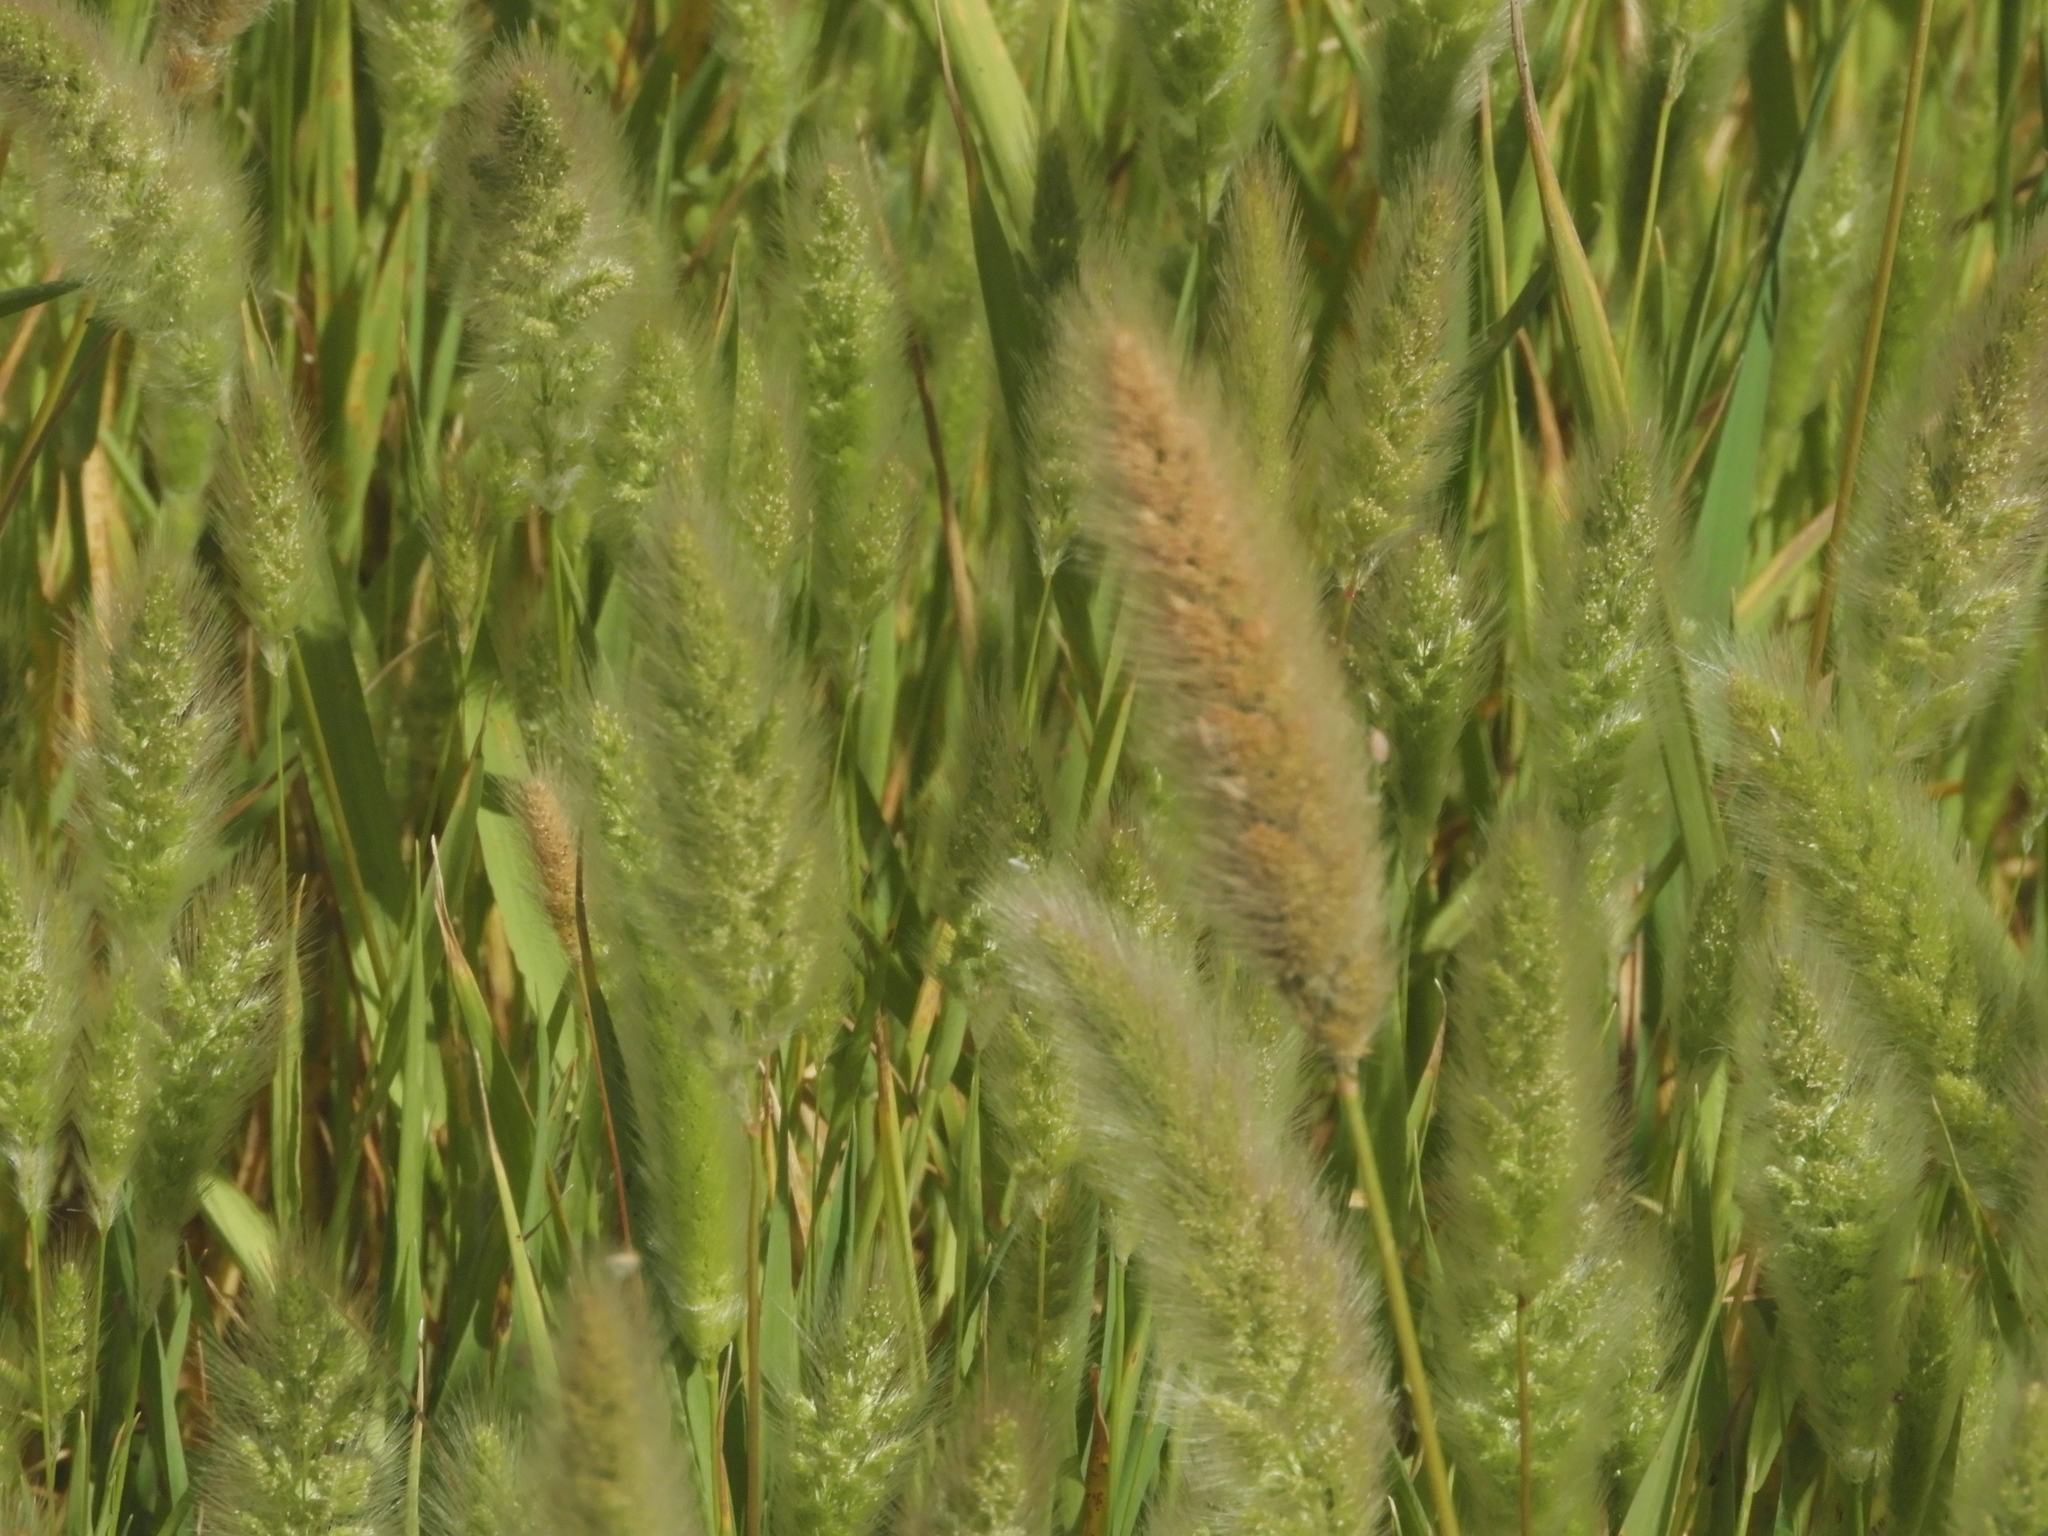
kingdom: Plantae
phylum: Tracheophyta
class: Liliopsida
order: Poales
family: Poaceae
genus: Polypogon
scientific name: Polypogon monspeliensis
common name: Annual rabbitsfoot grass
